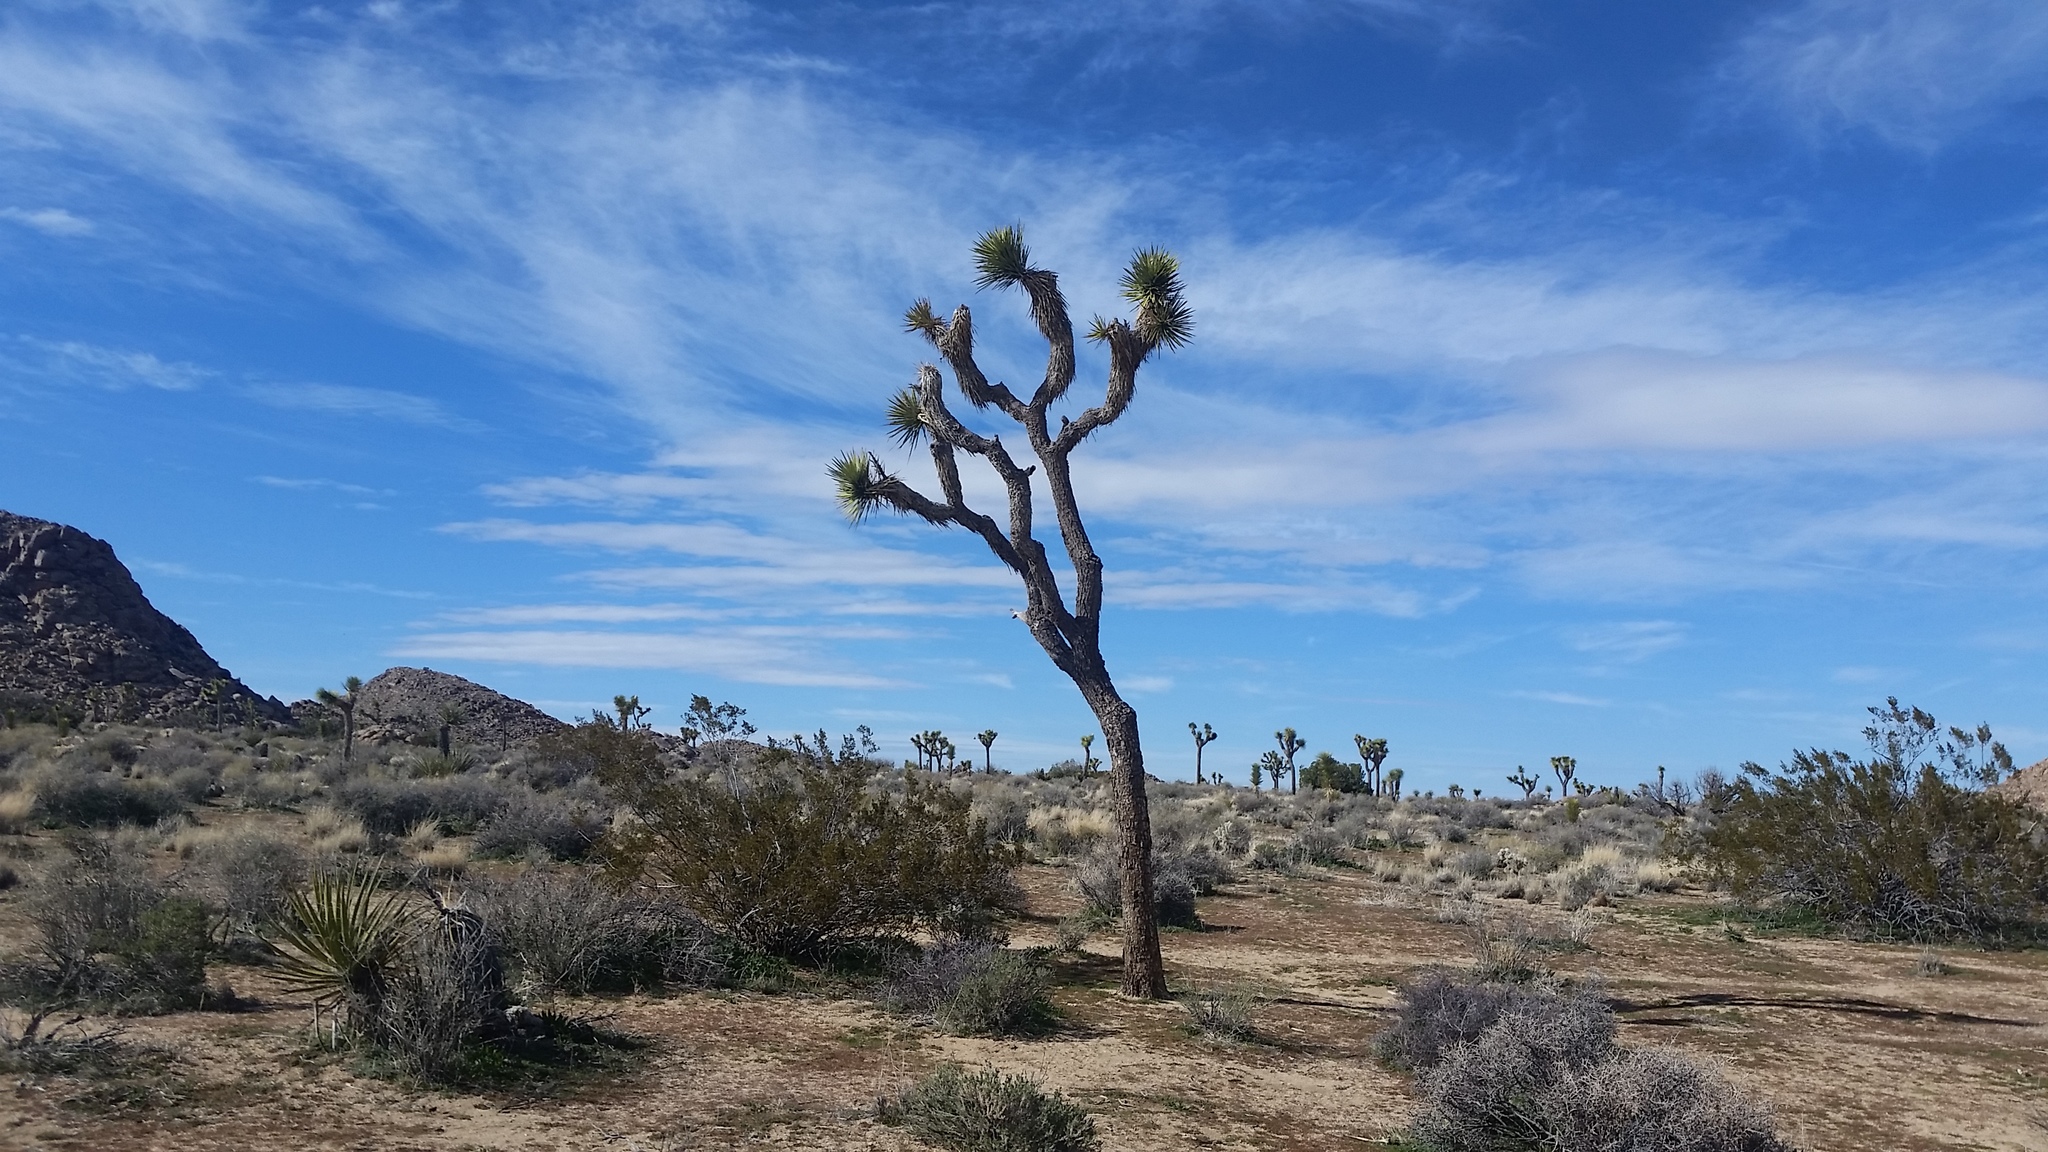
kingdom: Plantae
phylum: Tracheophyta
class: Liliopsida
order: Asparagales
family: Asparagaceae
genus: Yucca
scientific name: Yucca brevifolia
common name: Joshua tree
